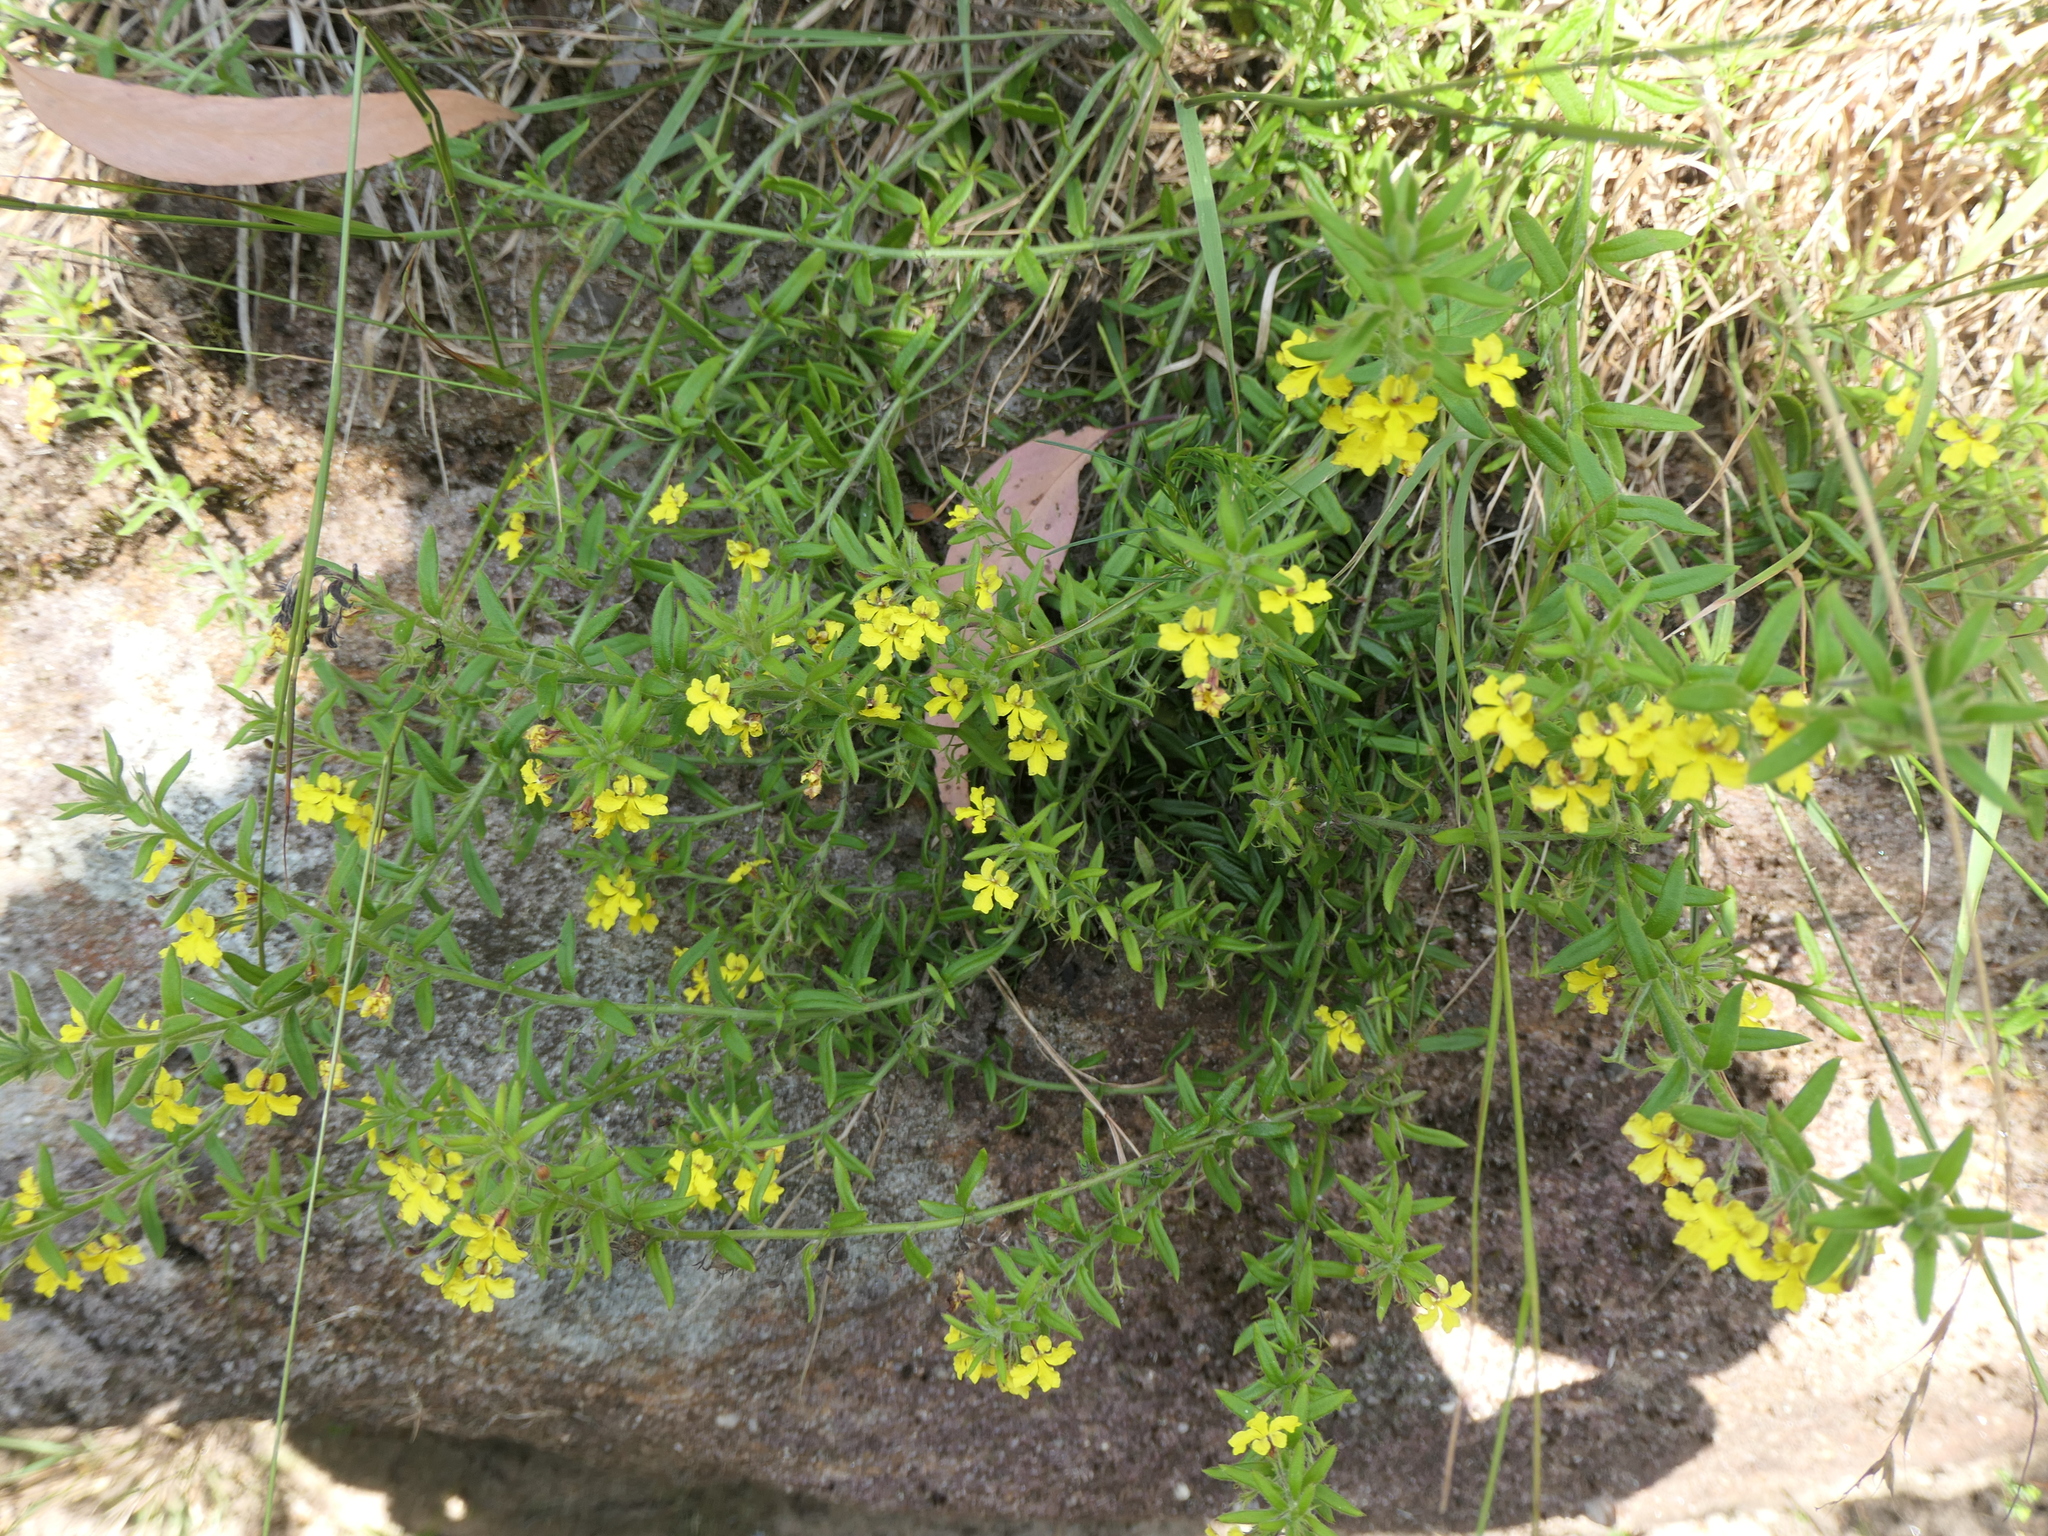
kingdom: Plantae
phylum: Tracheophyta
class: Magnoliopsida
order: Asterales
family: Goodeniaceae
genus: Goodenia
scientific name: Goodenia heterophylla
